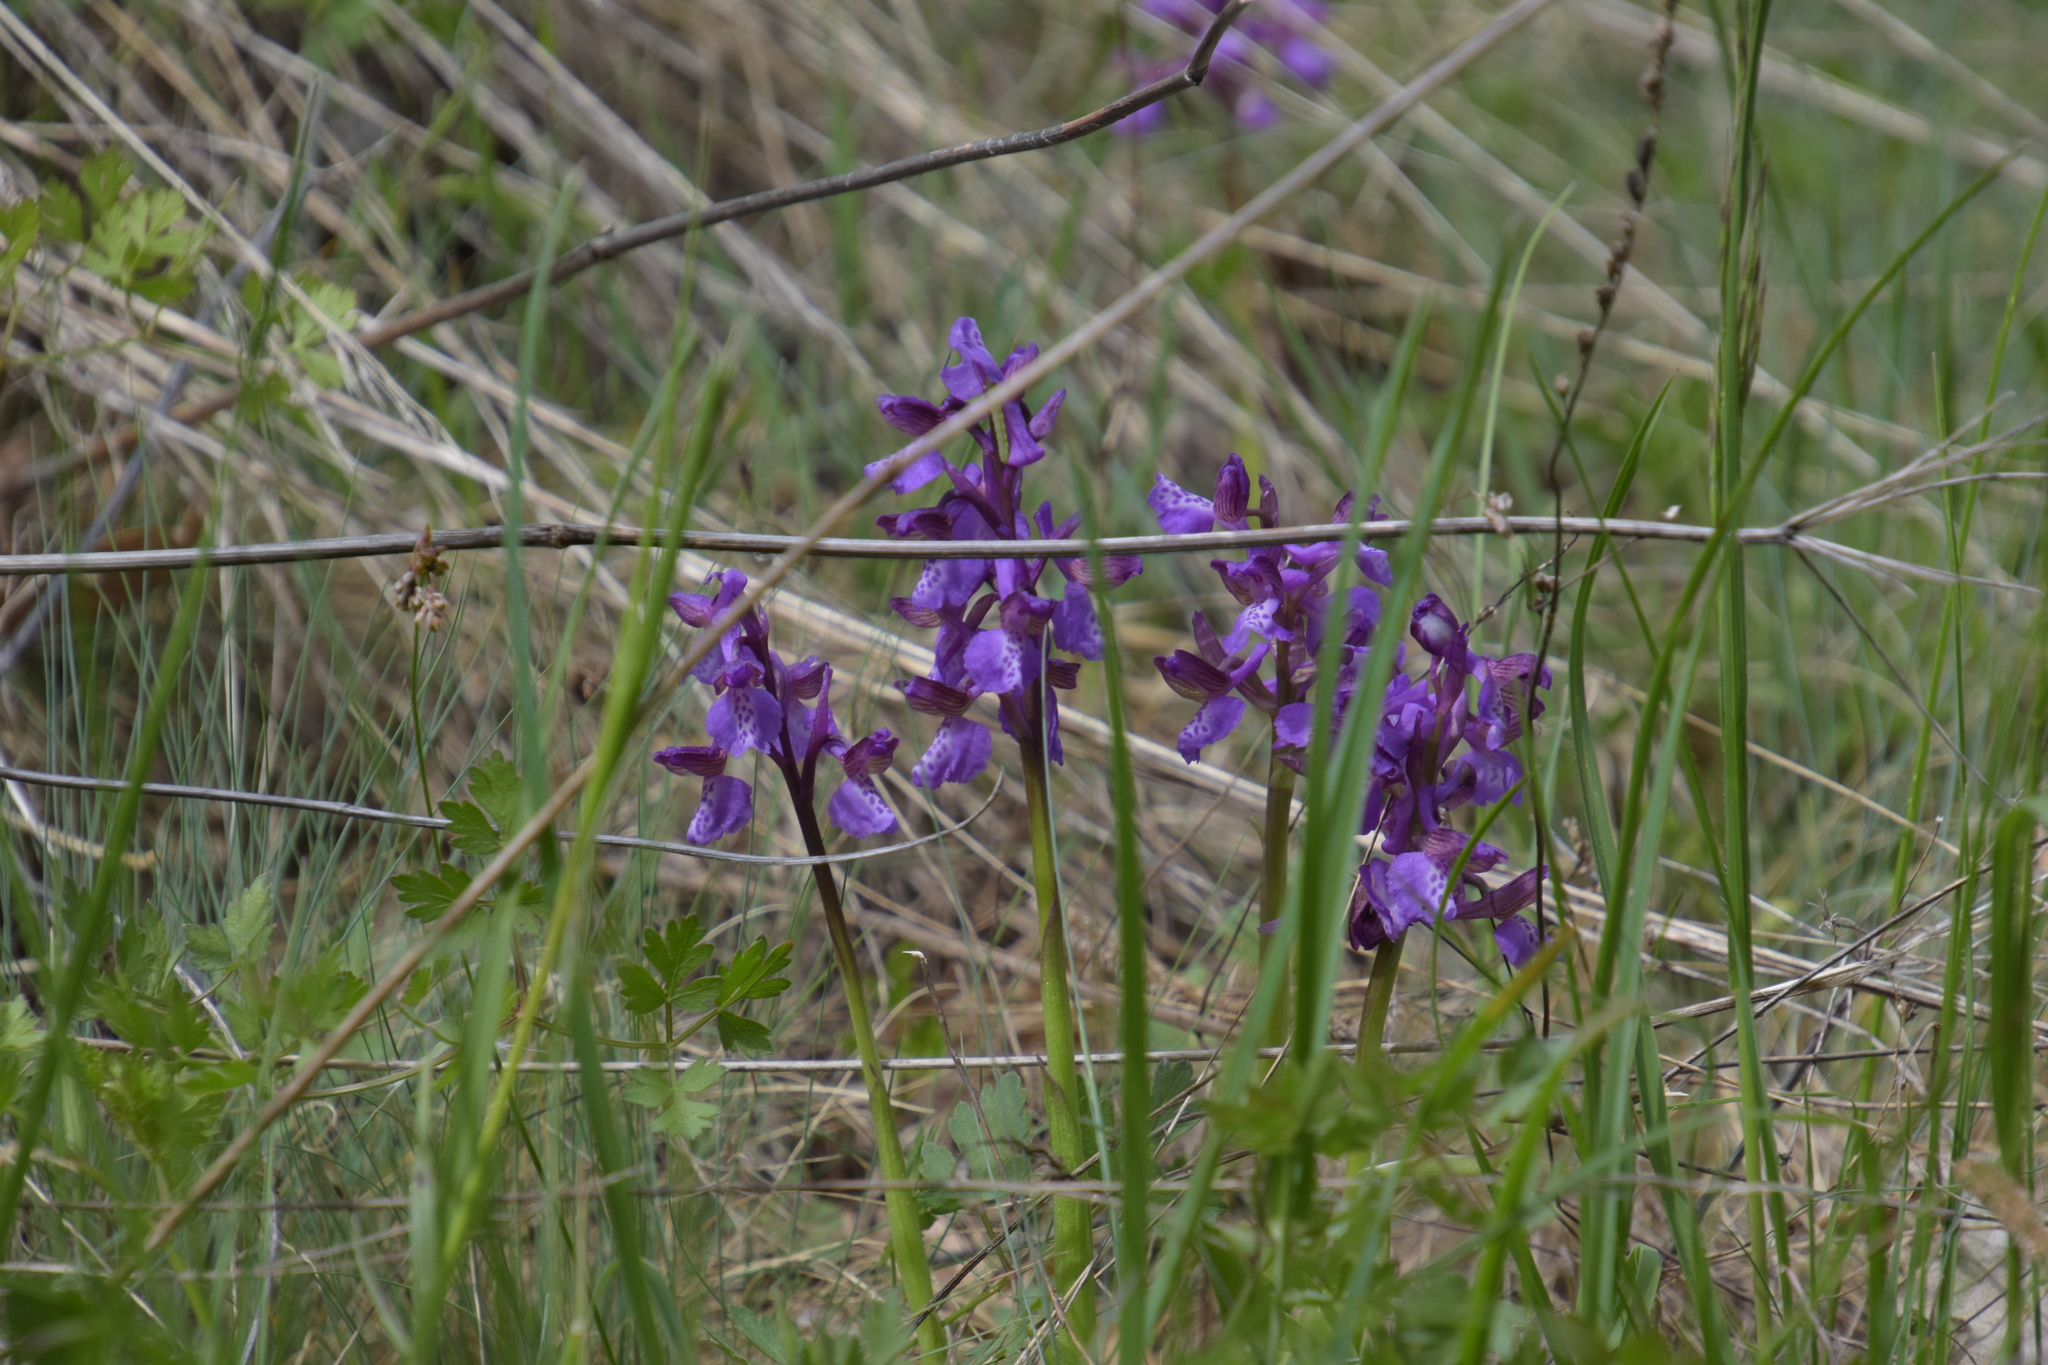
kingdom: Plantae
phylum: Tracheophyta
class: Liliopsida
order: Asparagales
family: Orchidaceae
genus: Anacamptis
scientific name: Anacamptis morio
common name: Green-winged orchid
